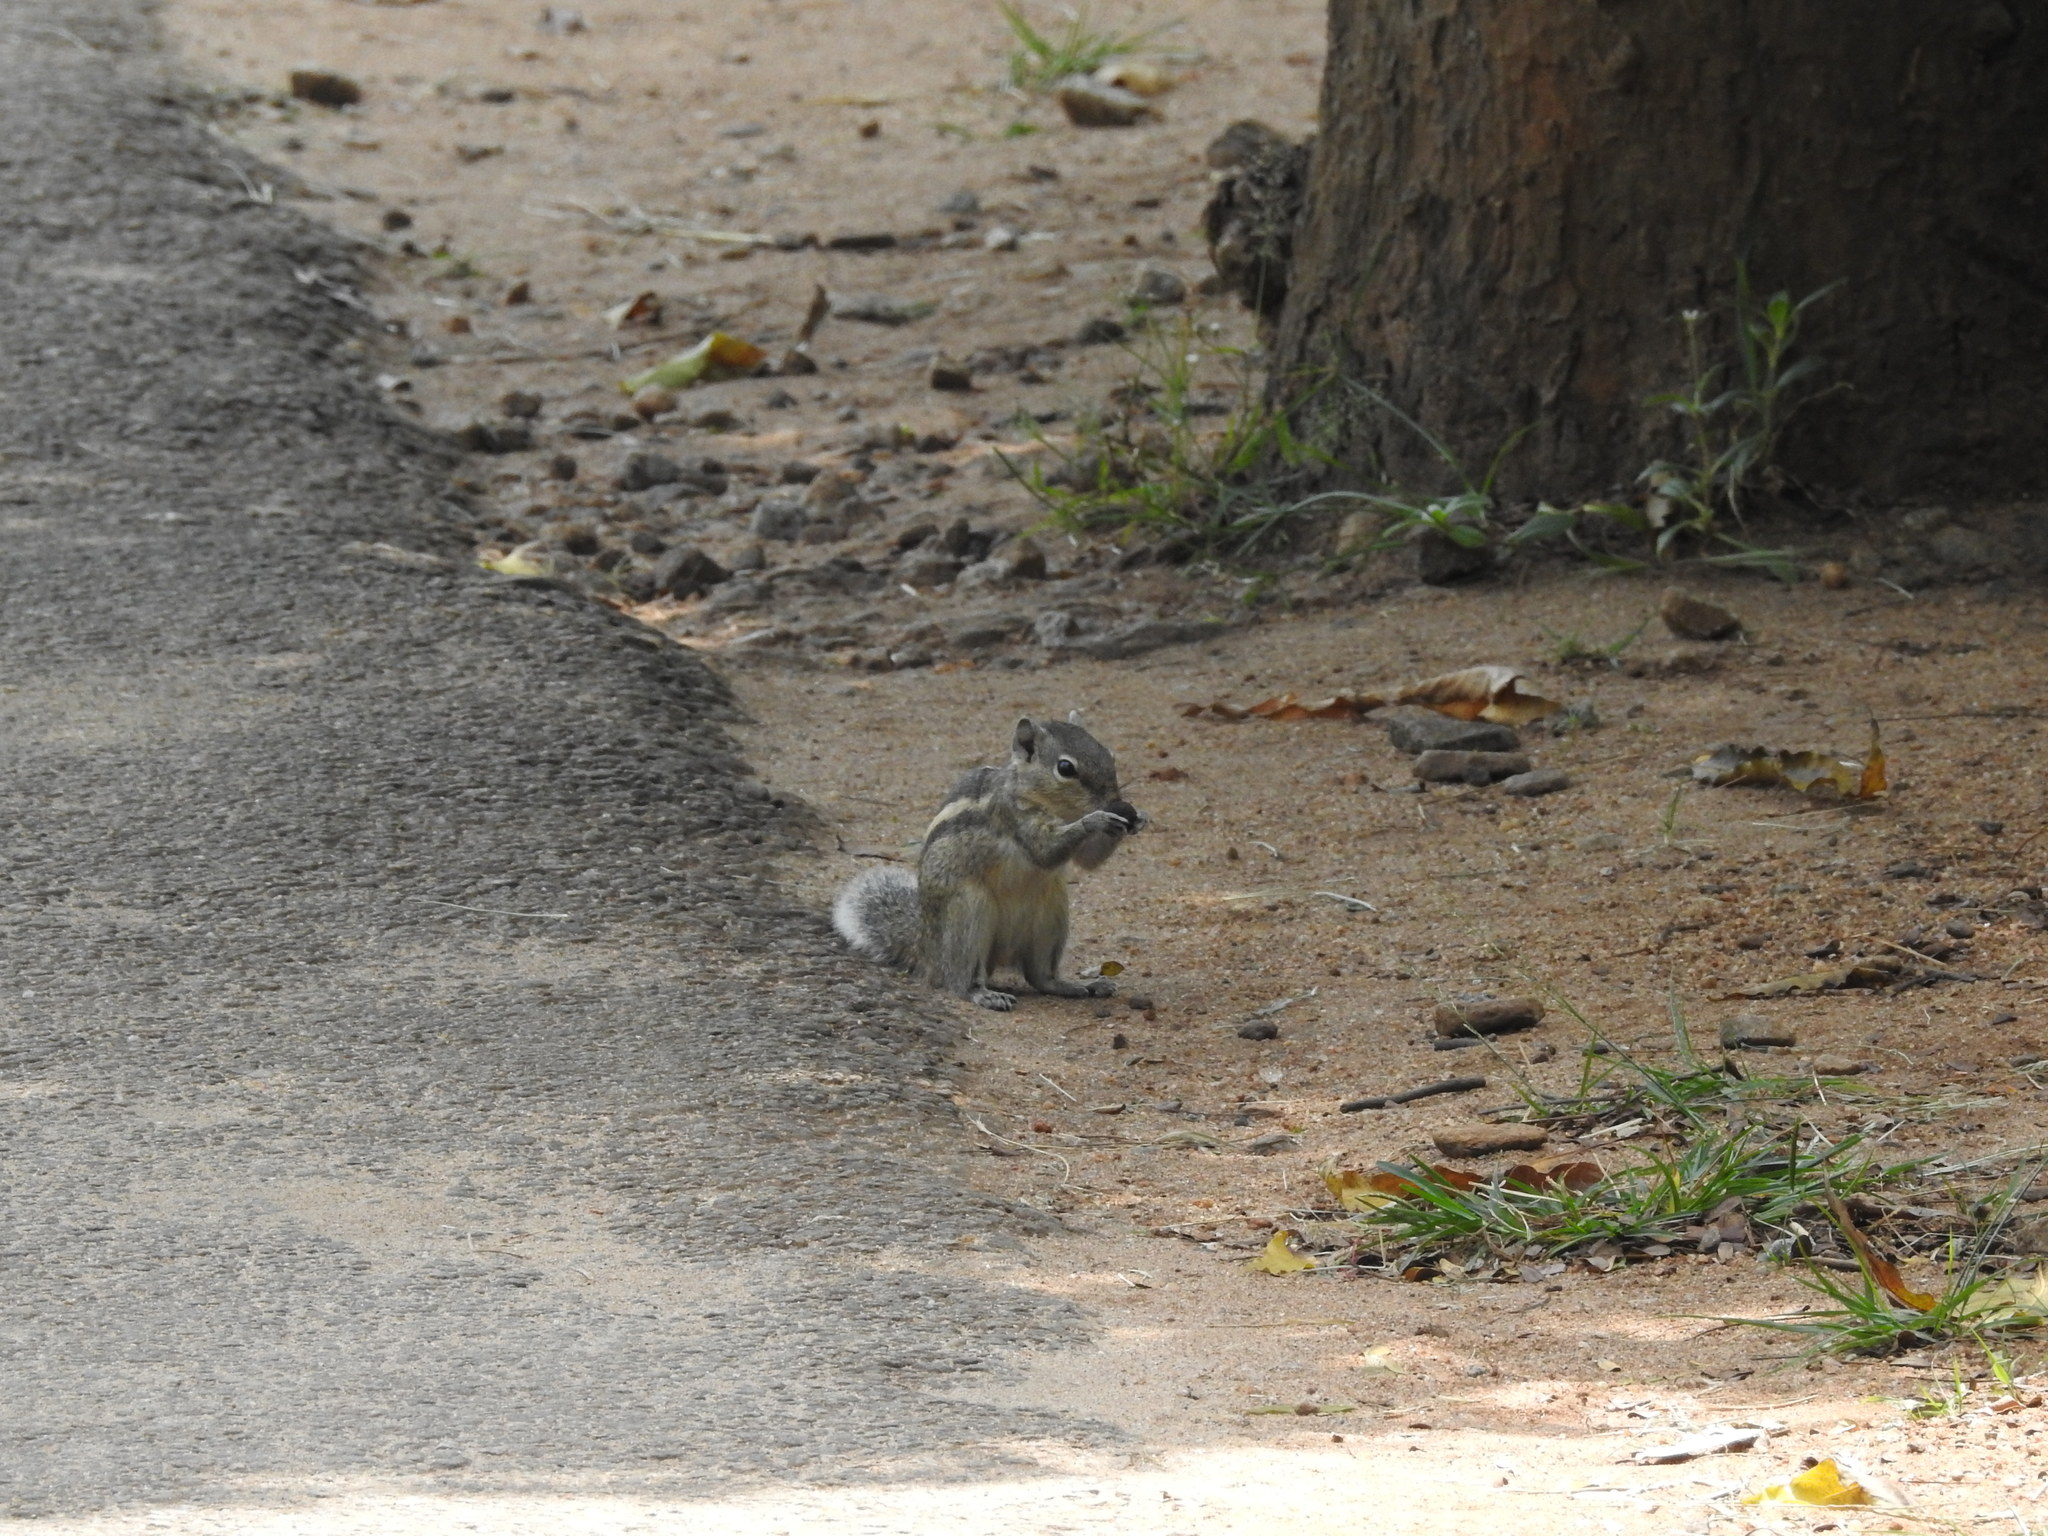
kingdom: Animalia
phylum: Chordata
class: Mammalia
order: Rodentia
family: Sciuridae
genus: Funambulus
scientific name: Funambulus palmarum
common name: Indian palm squirrel
